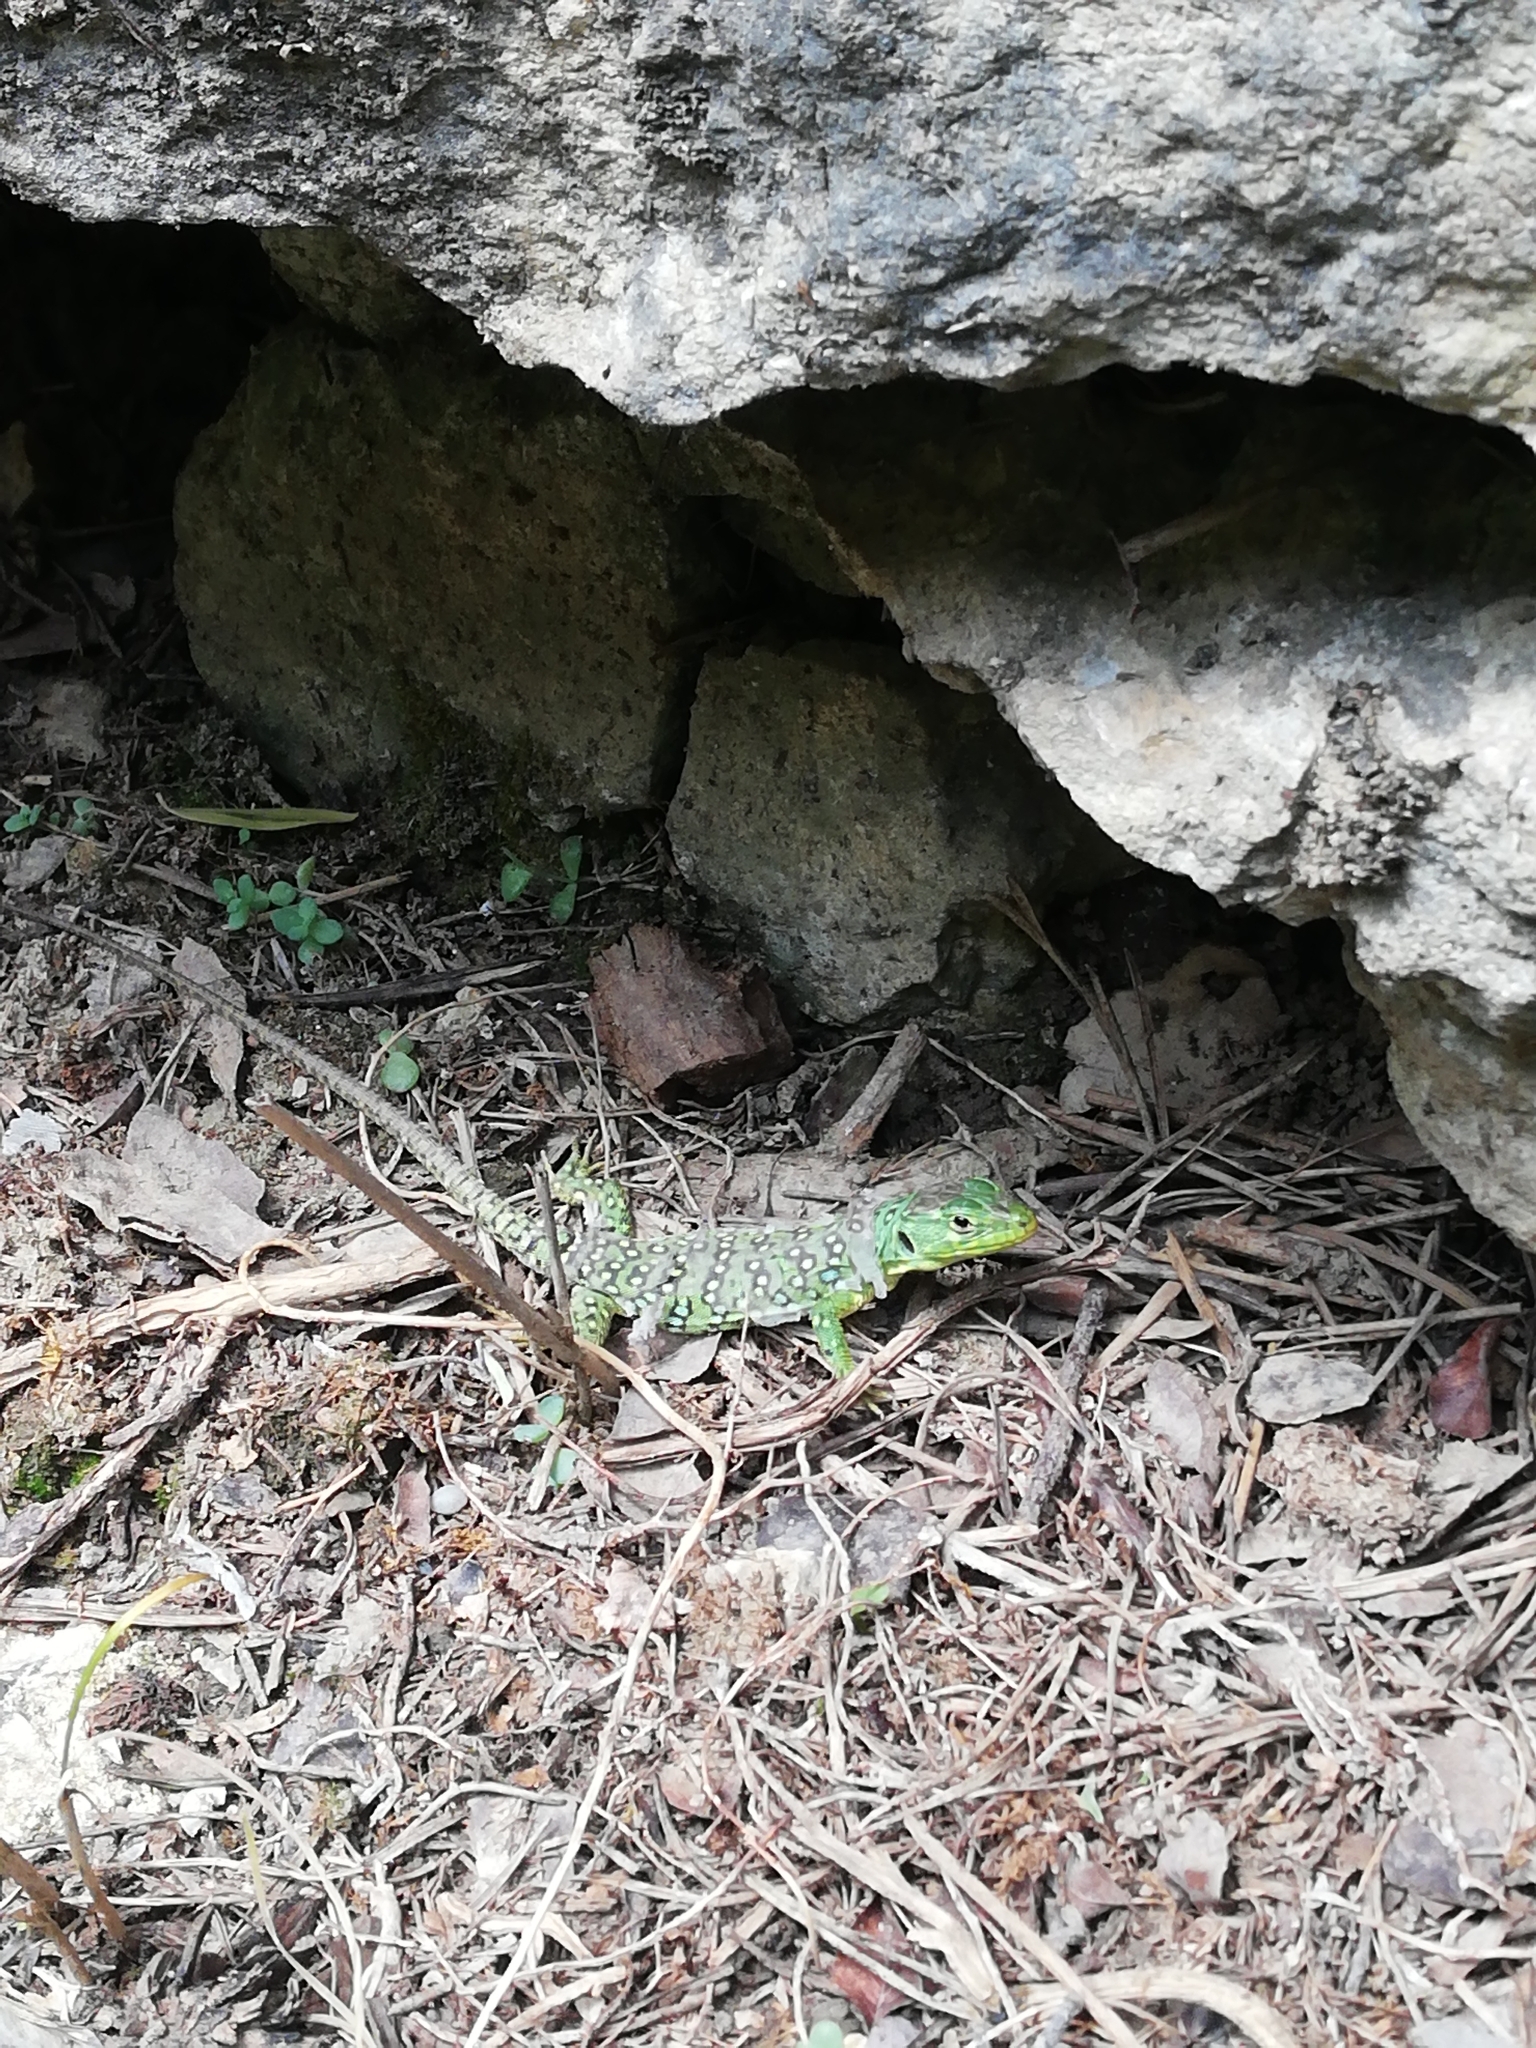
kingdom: Animalia
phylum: Chordata
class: Squamata
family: Lacertidae
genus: Timon
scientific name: Timon lepidus
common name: Ocellated lizard
